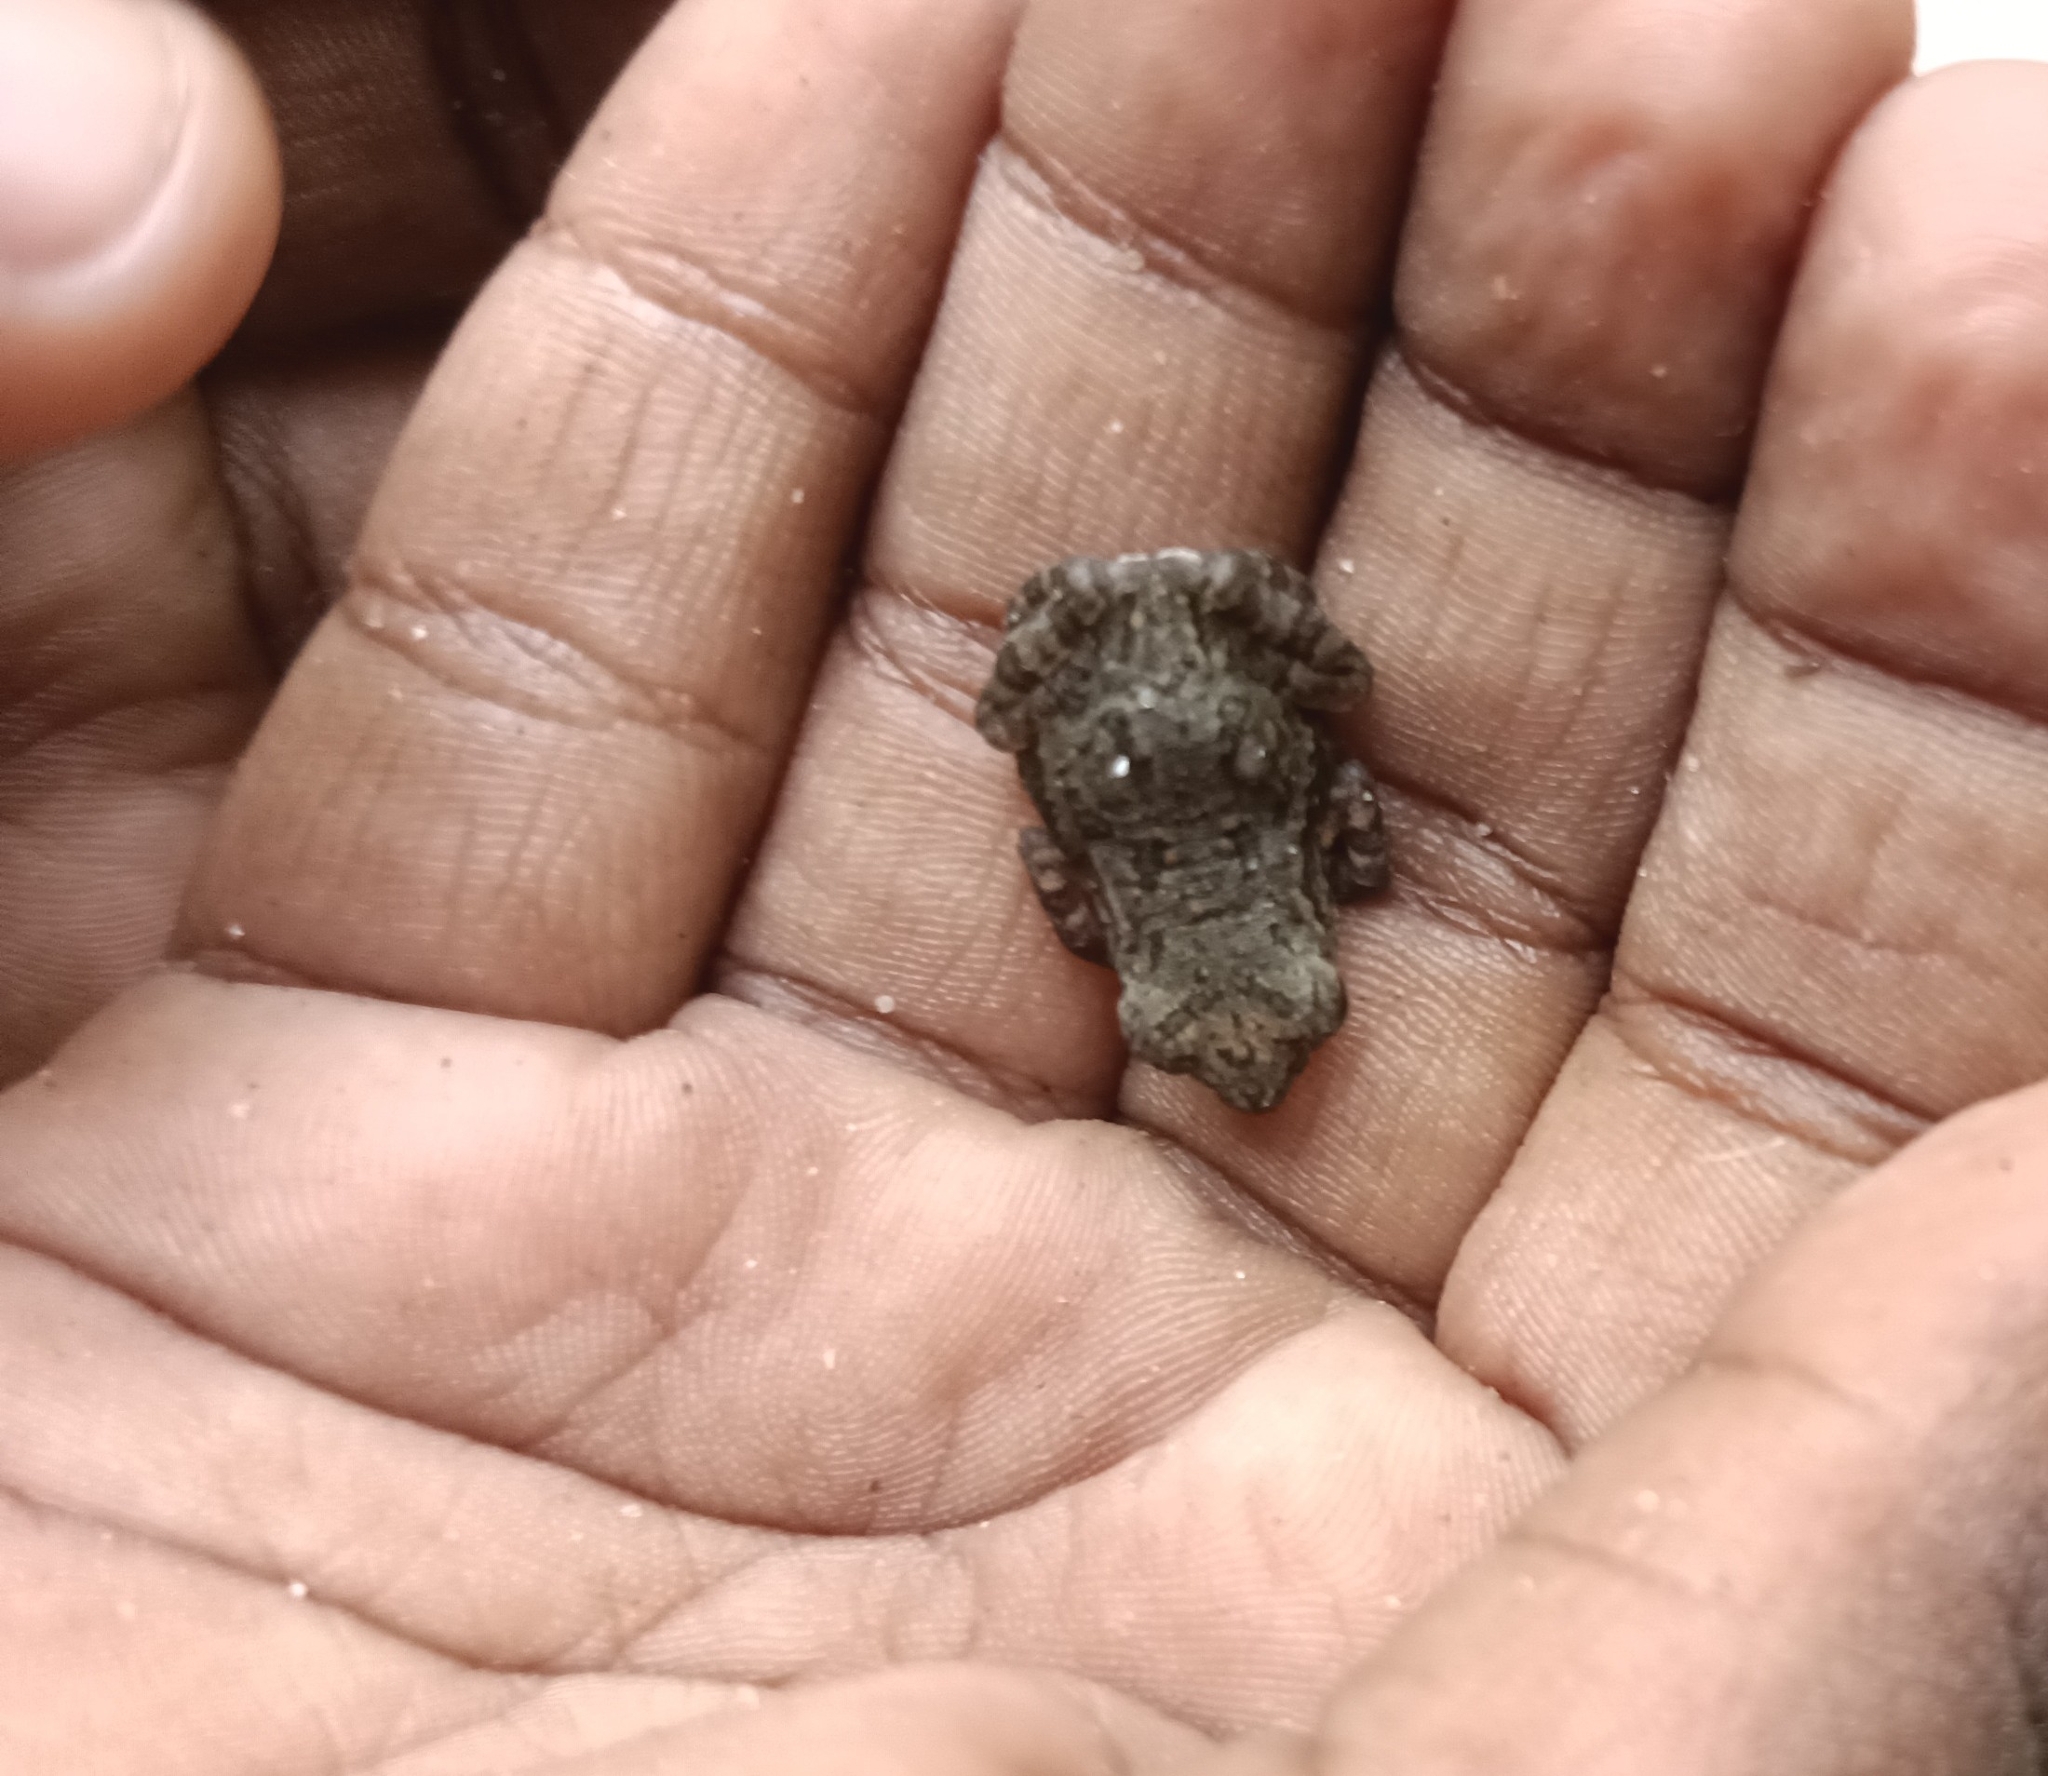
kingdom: Animalia
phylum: Chordata
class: Amphibia
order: Anura
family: Bufonidae
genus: Duttaphrynus
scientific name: Duttaphrynus melanostictus
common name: Common sunda toad
